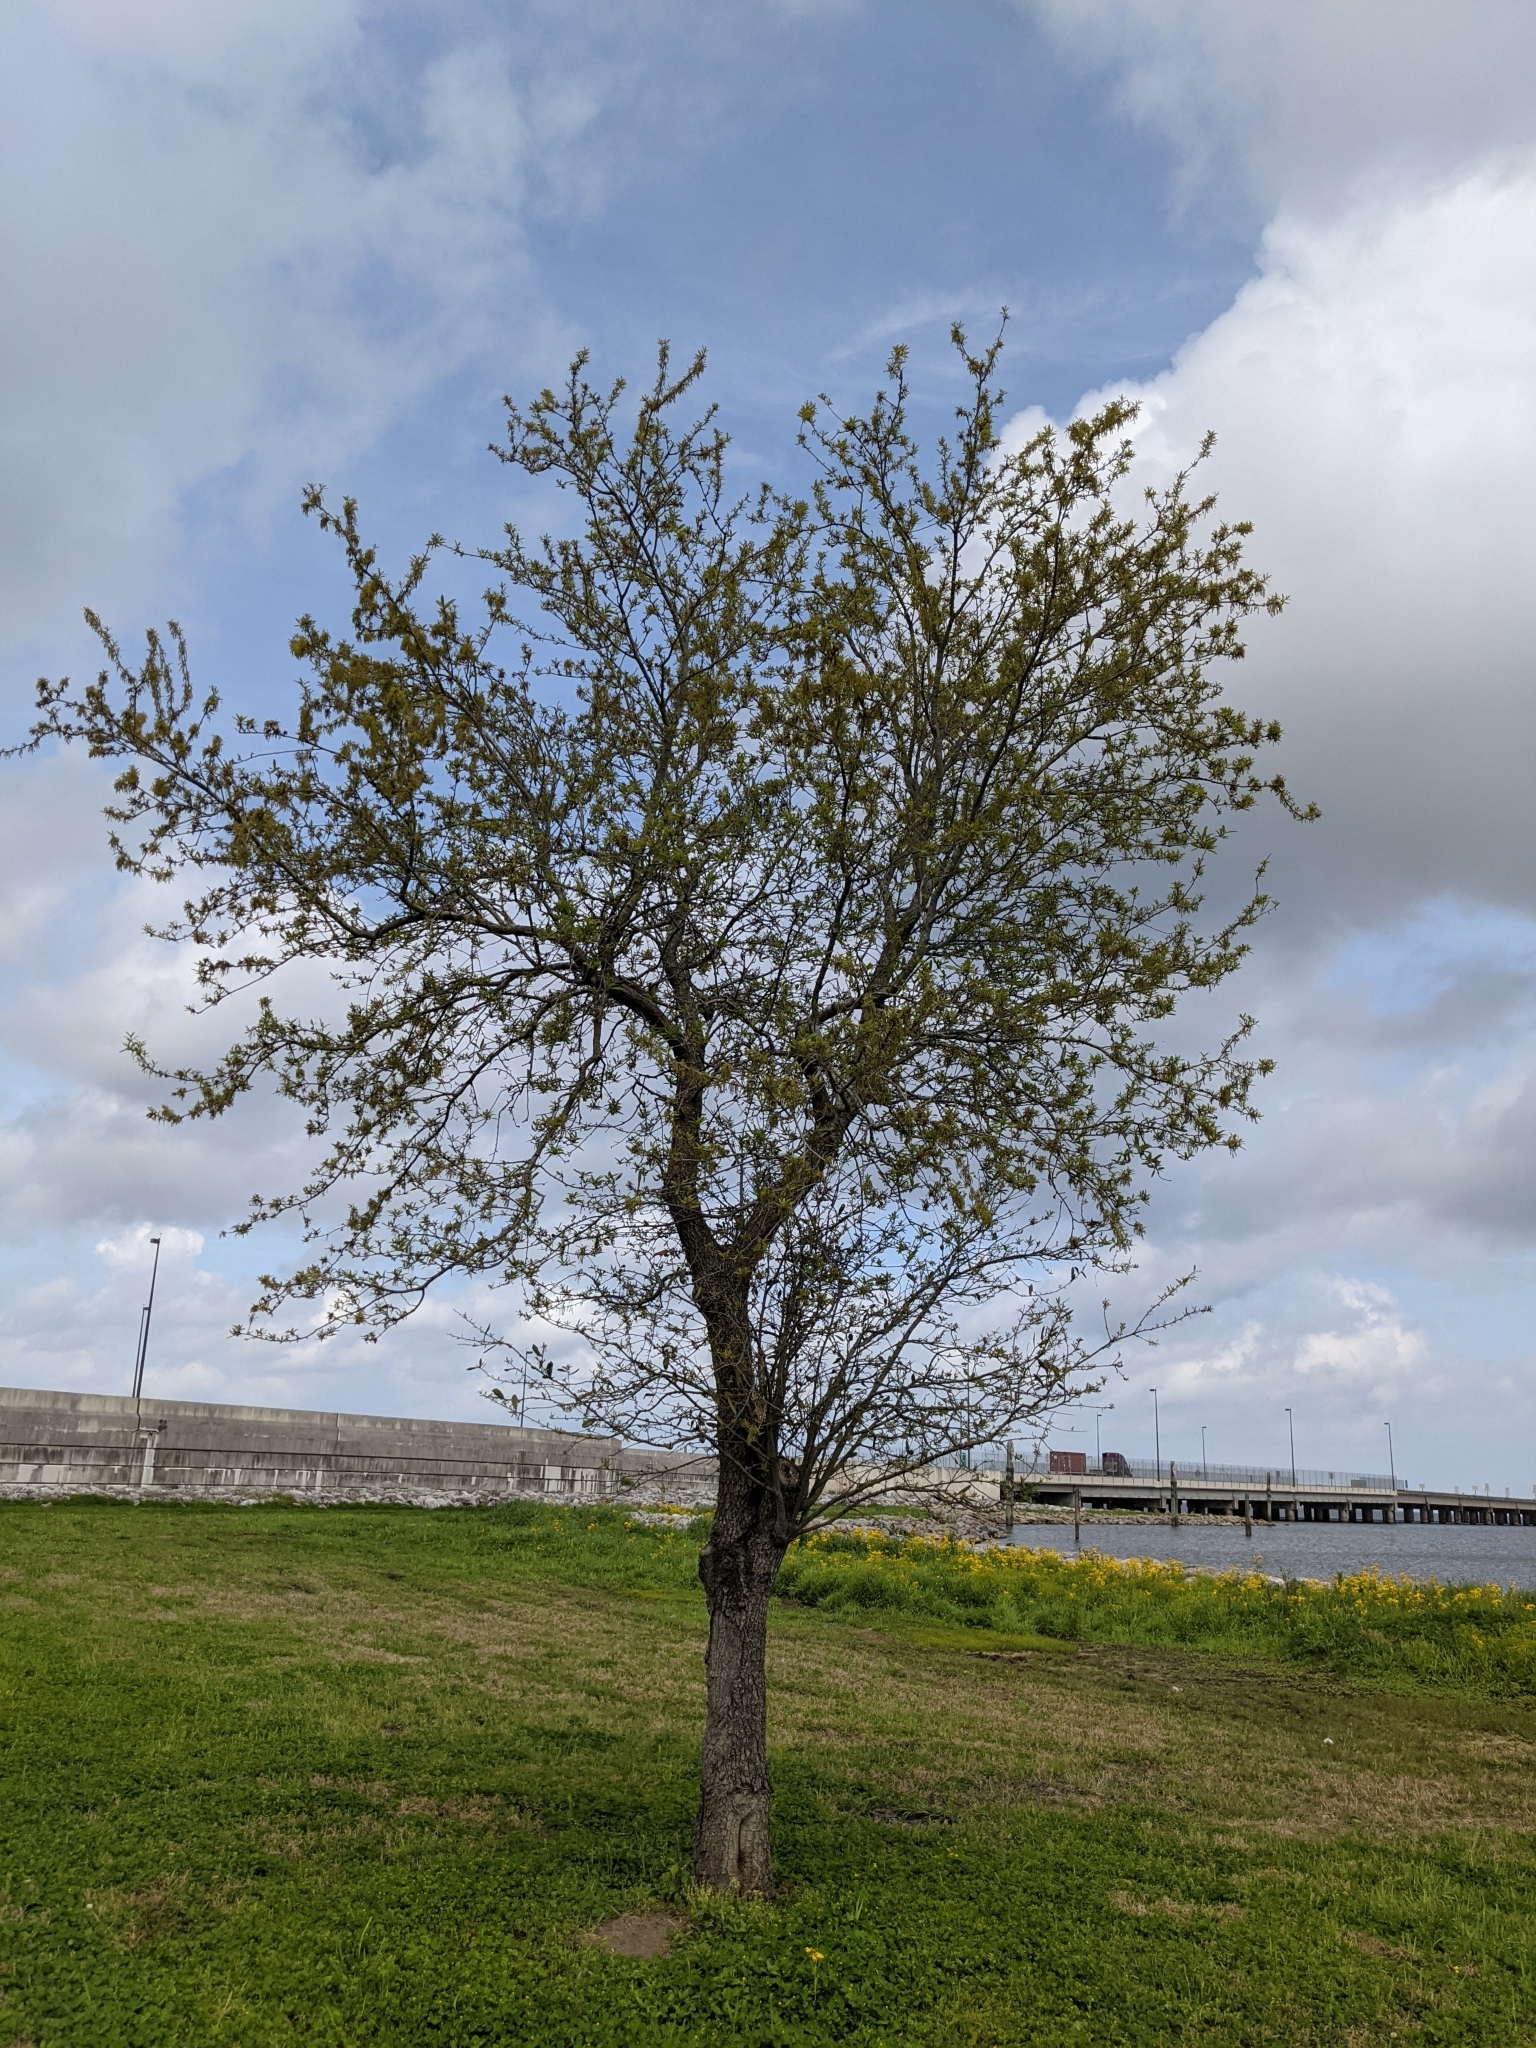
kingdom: Animalia
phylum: Arthropoda
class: Insecta
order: Hymenoptera
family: Cynipidae
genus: Callirhytis
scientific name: Callirhytis
